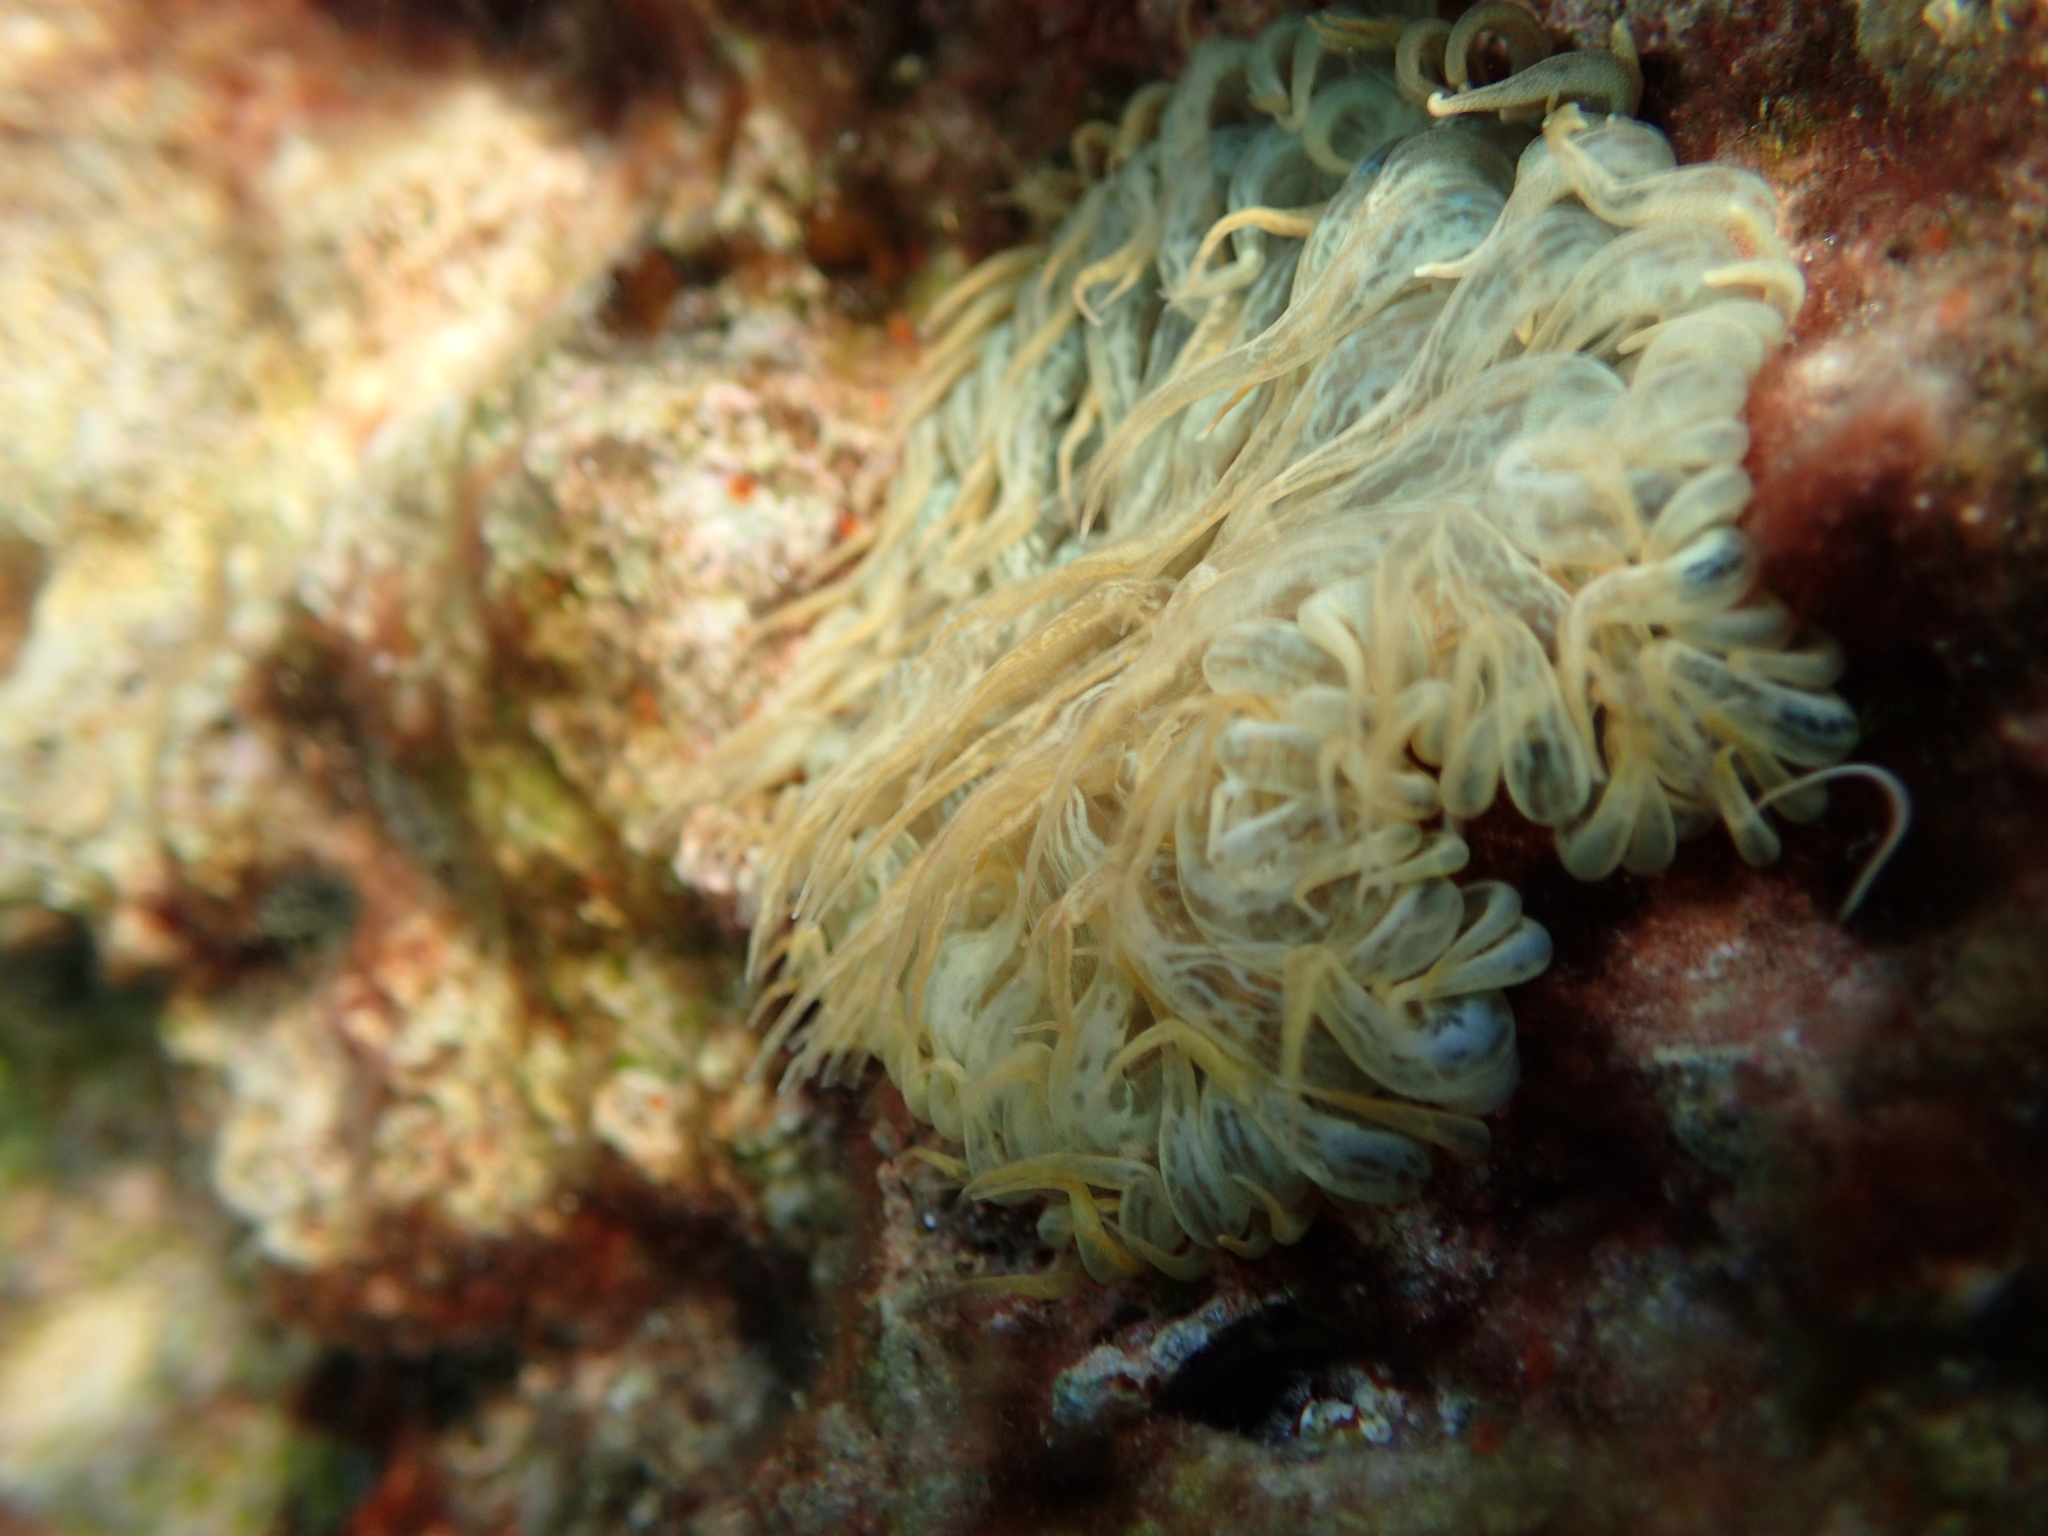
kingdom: Animalia
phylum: Cnidaria
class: Anthozoa
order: Actiniaria
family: Aiptasiidae
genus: Aiptasia
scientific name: Aiptasia mutabilis
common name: Trumpet anemone
